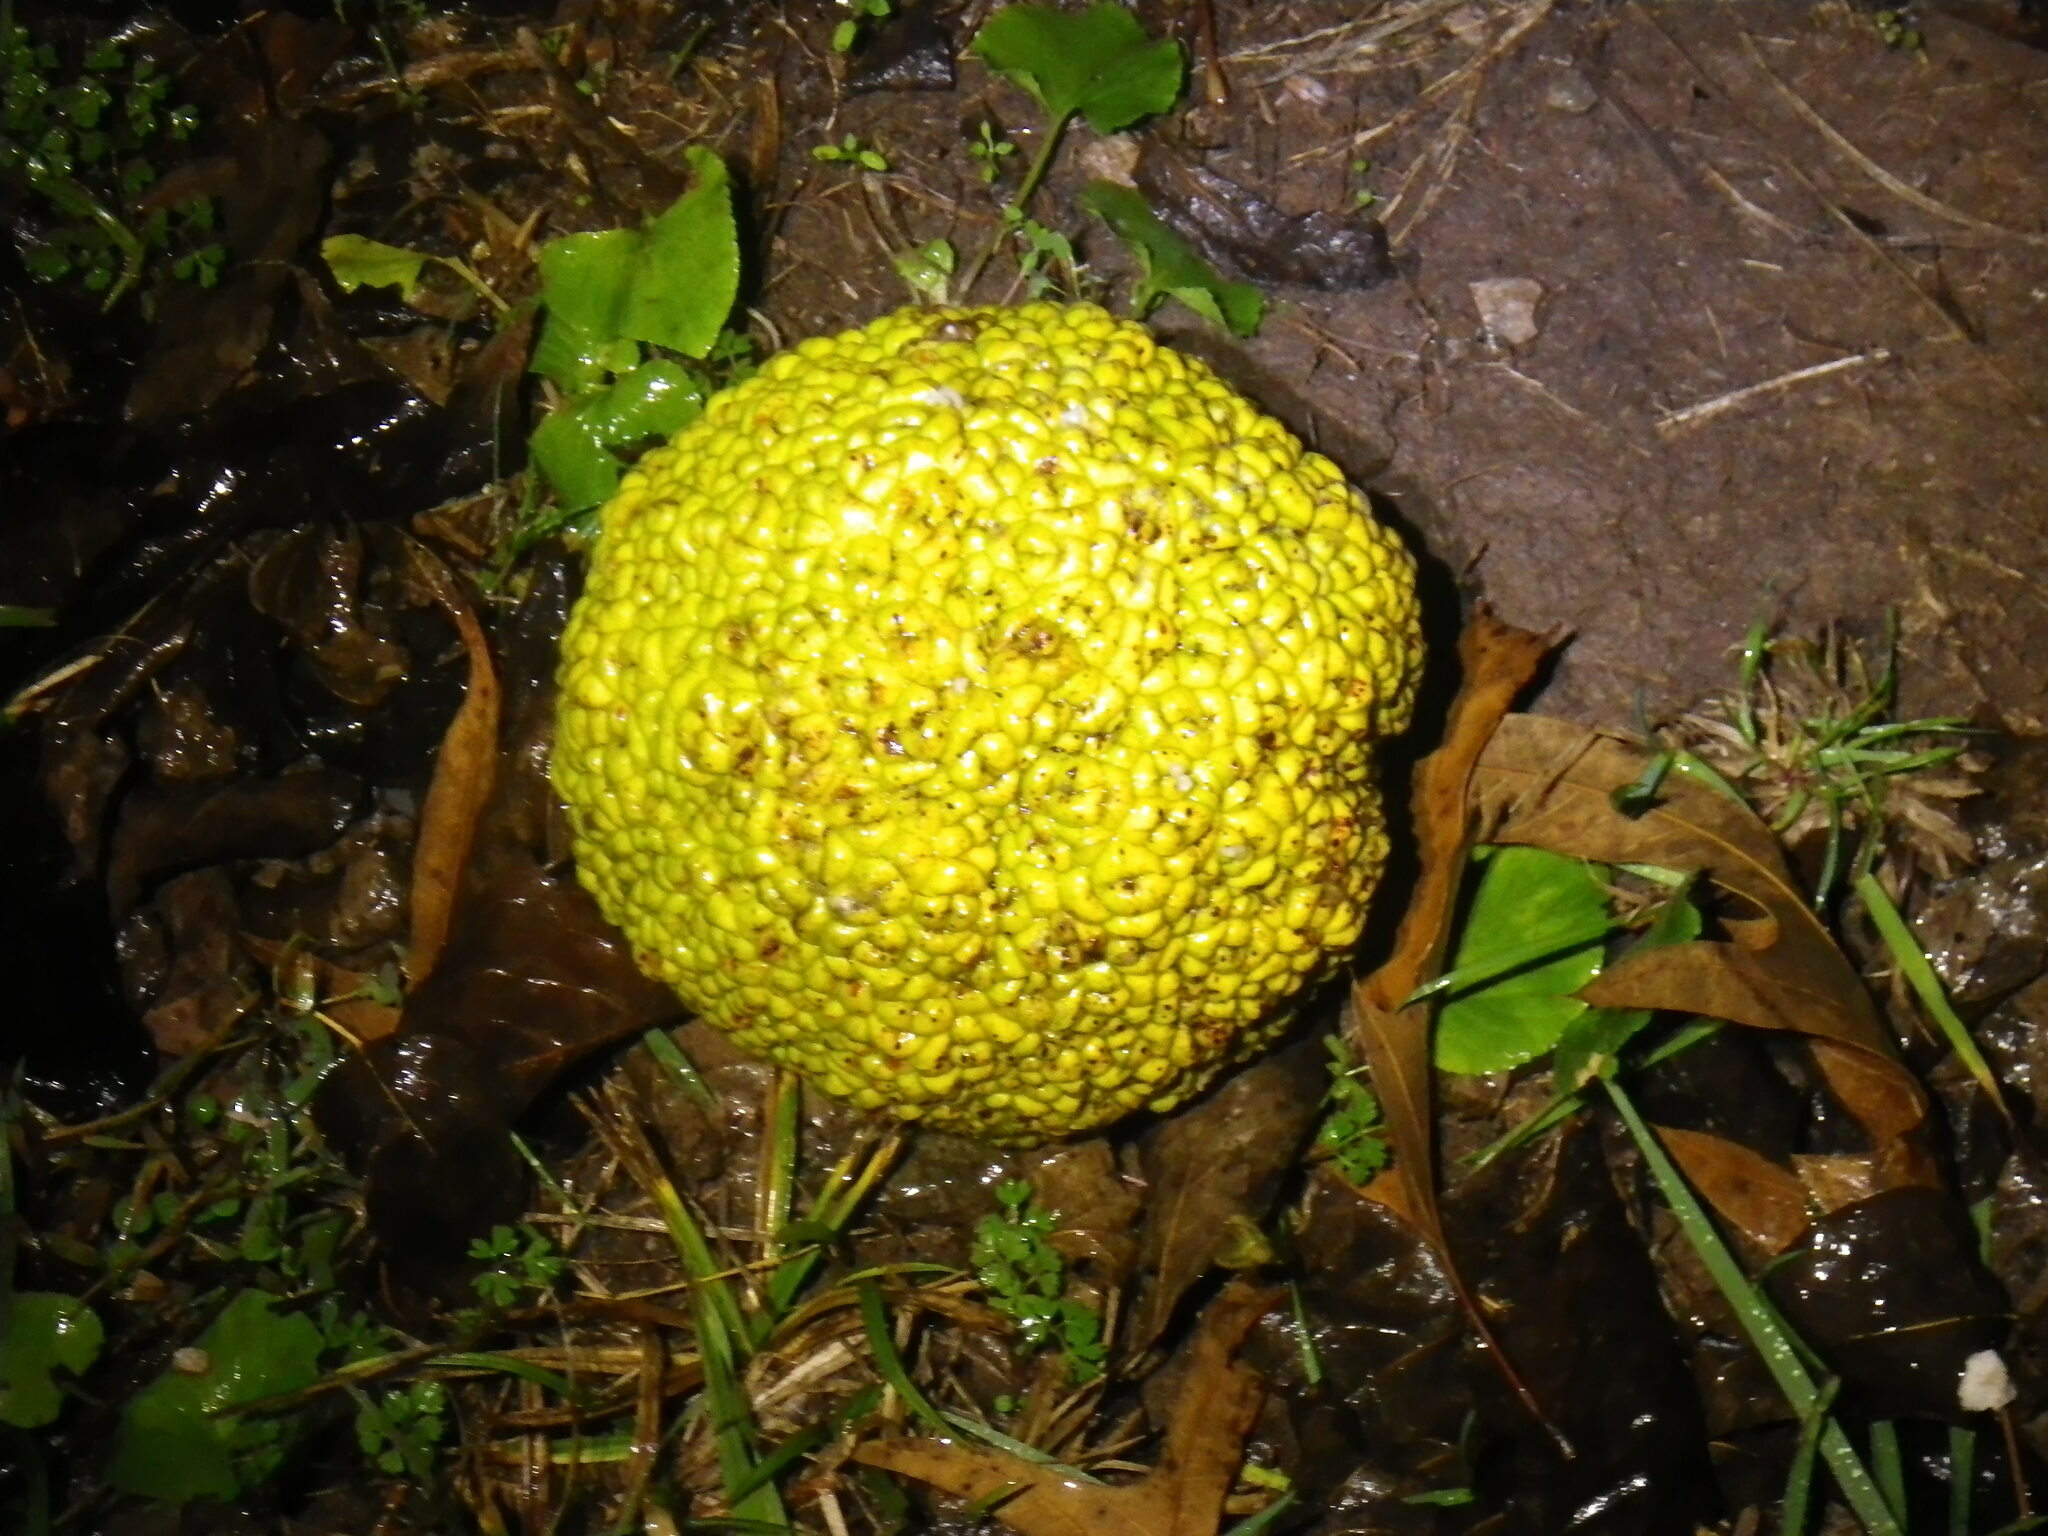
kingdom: Plantae
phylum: Tracheophyta
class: Magnoliopsida
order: Rosales
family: Moraceae
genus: Maclura
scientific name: Maclura pomifera
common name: Osage-orange
